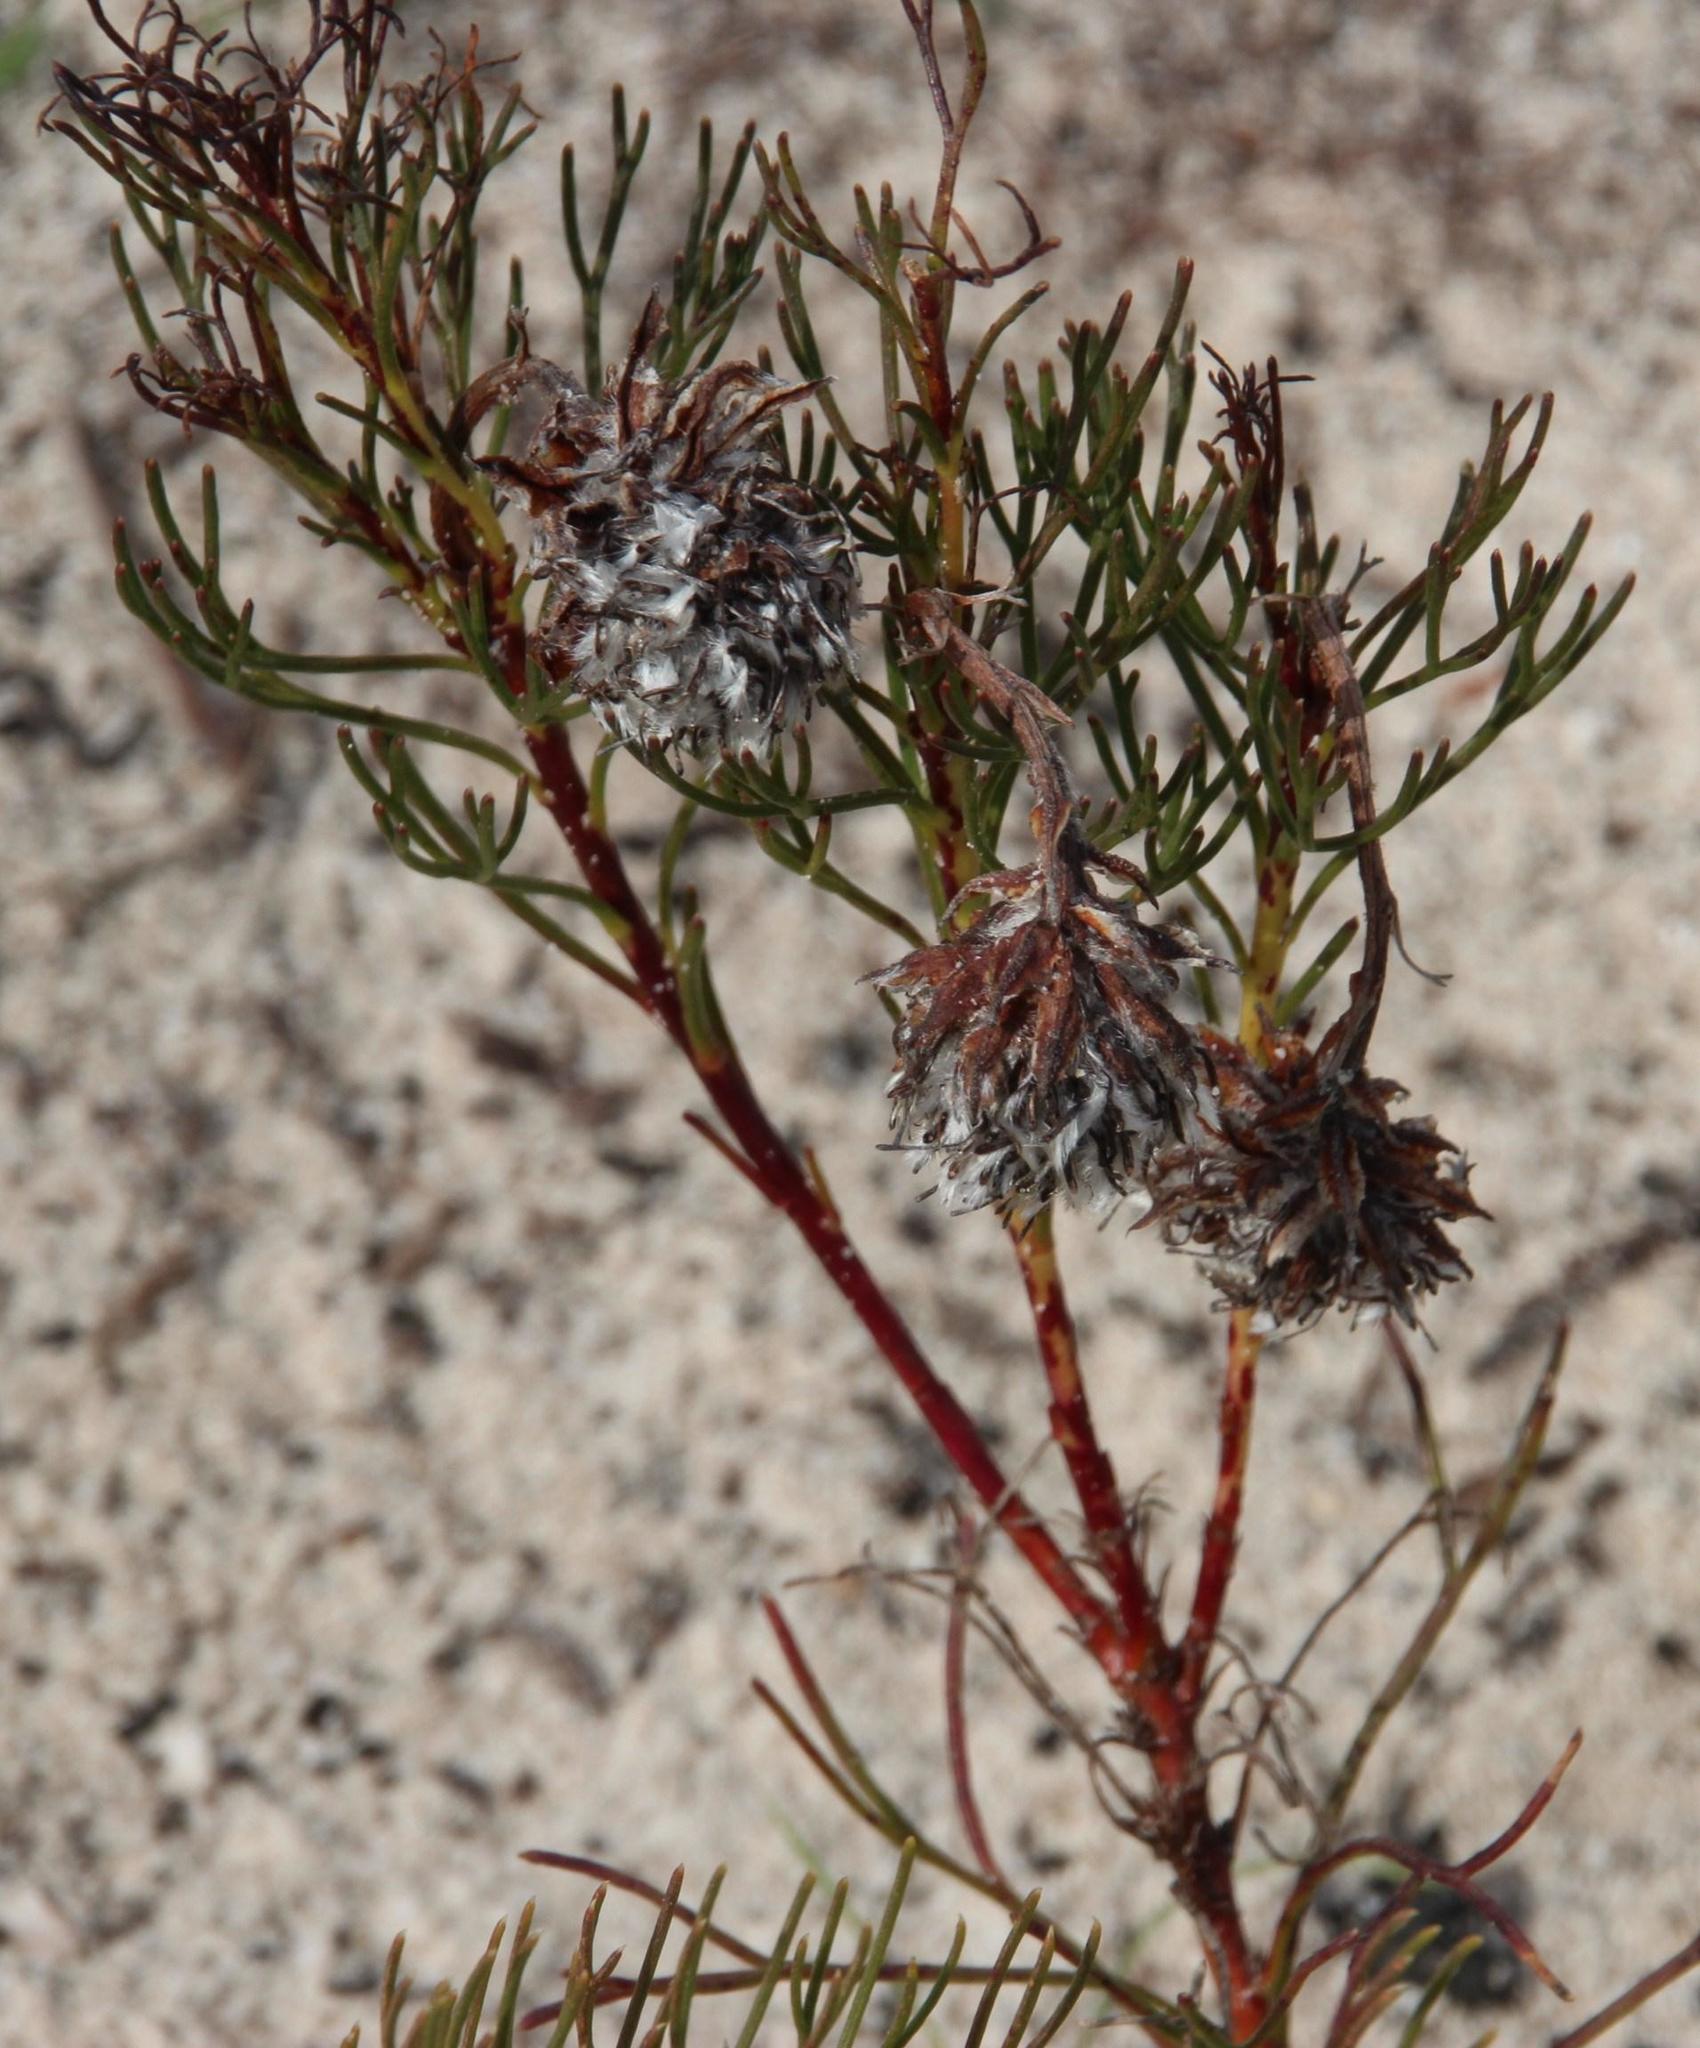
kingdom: Plantae
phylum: Tracheophyta
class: Magnoliopsida
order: Proteales
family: Proteaceae
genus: Serruria
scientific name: Serruria furcellata
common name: Kraaifontein spiderhead
